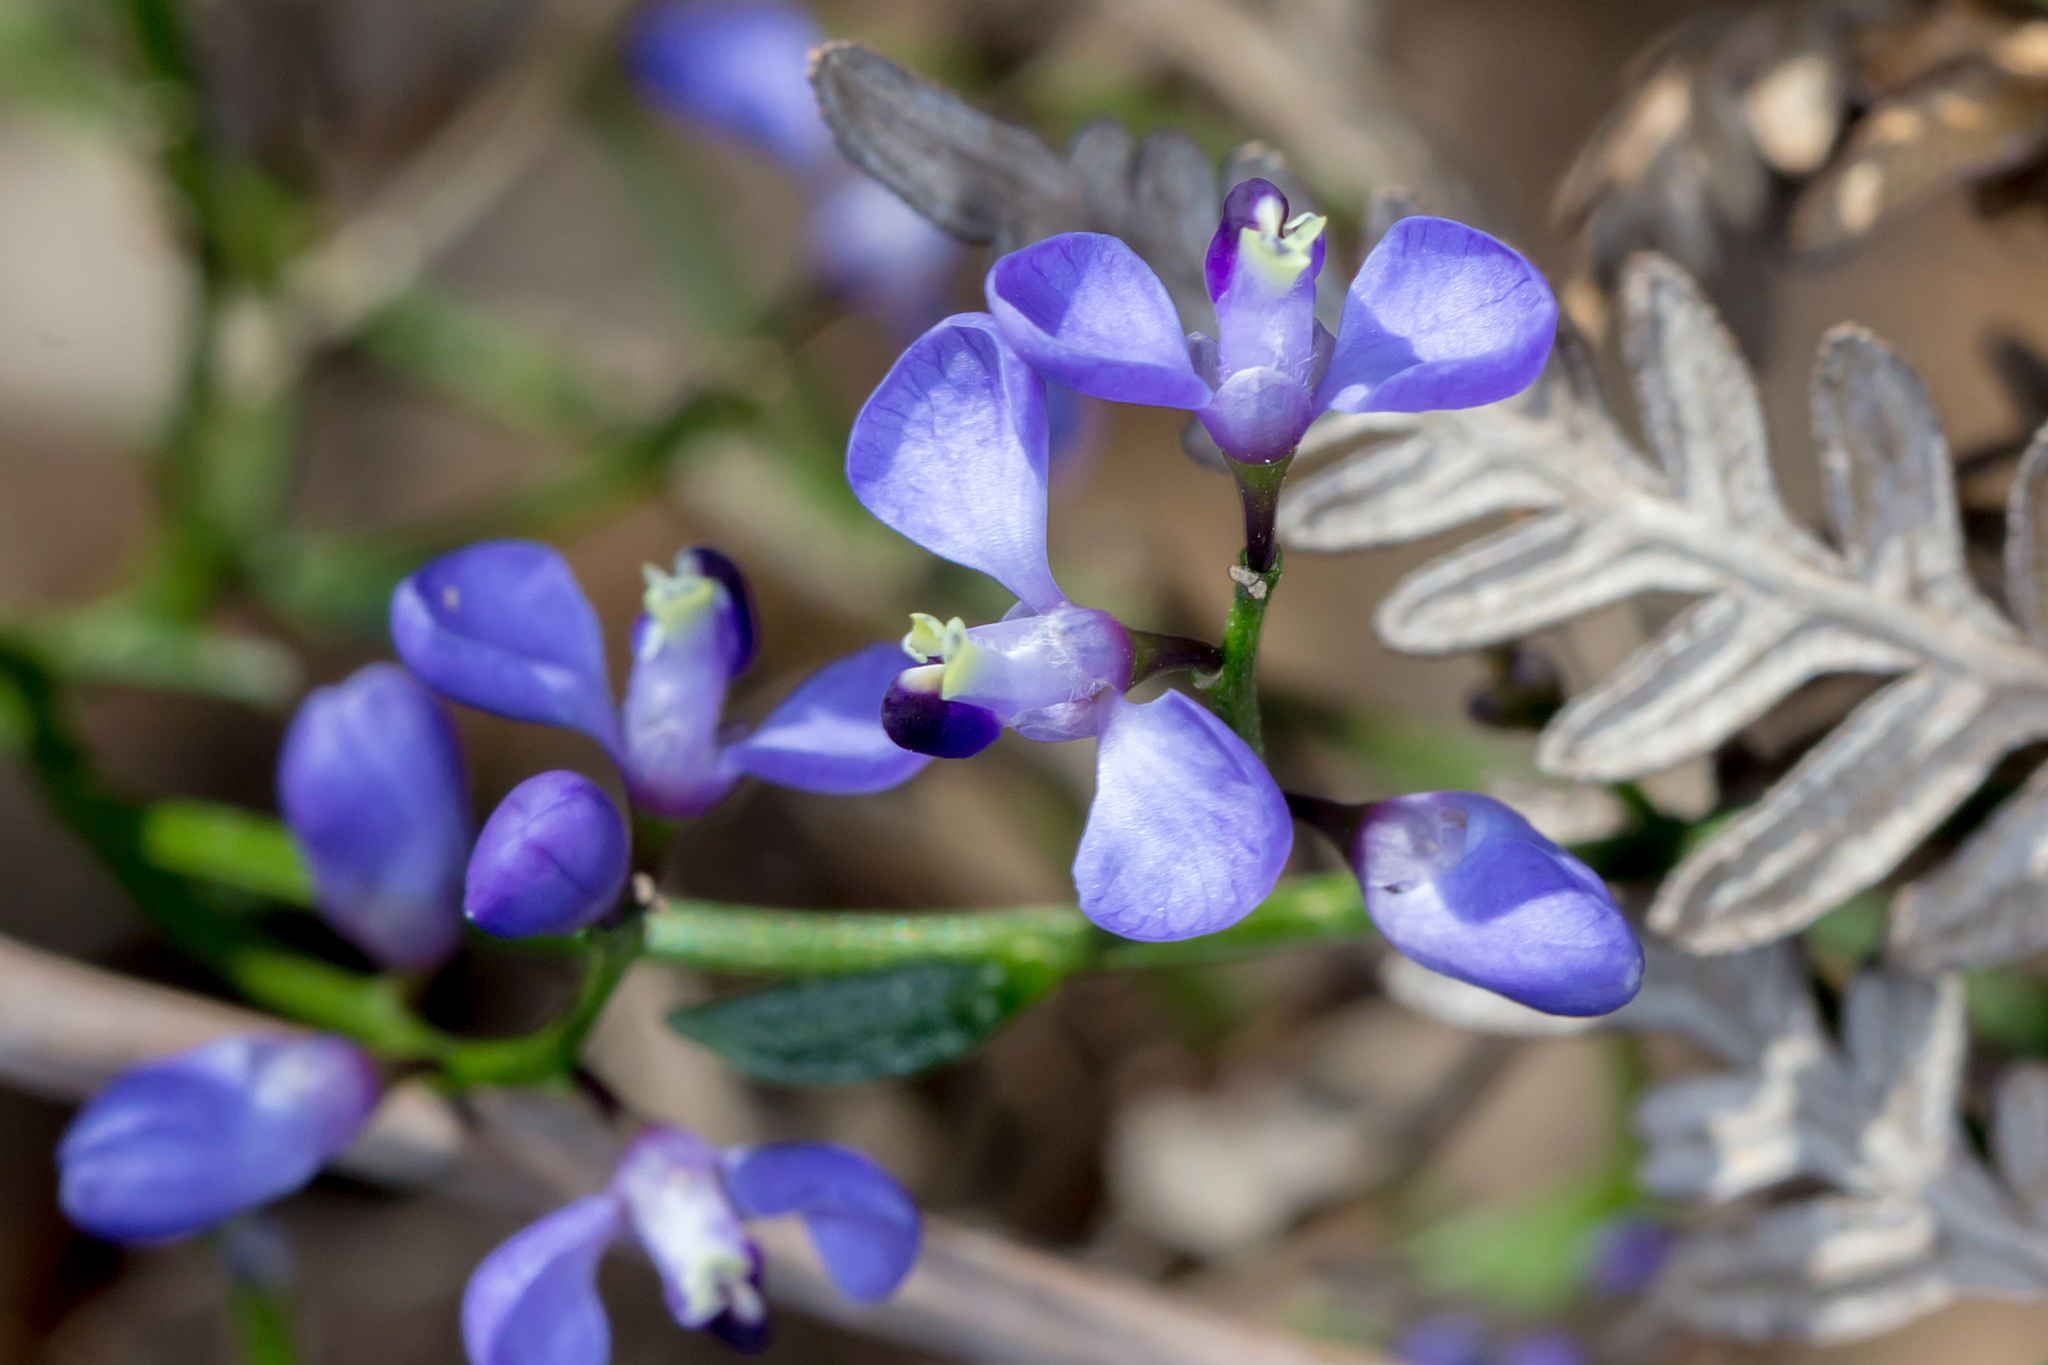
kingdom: Plantae
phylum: Tracheophyta
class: Magnoliopsida
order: Fabales
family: Polygalaceae
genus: Comesperma
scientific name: Comesperma volubile
